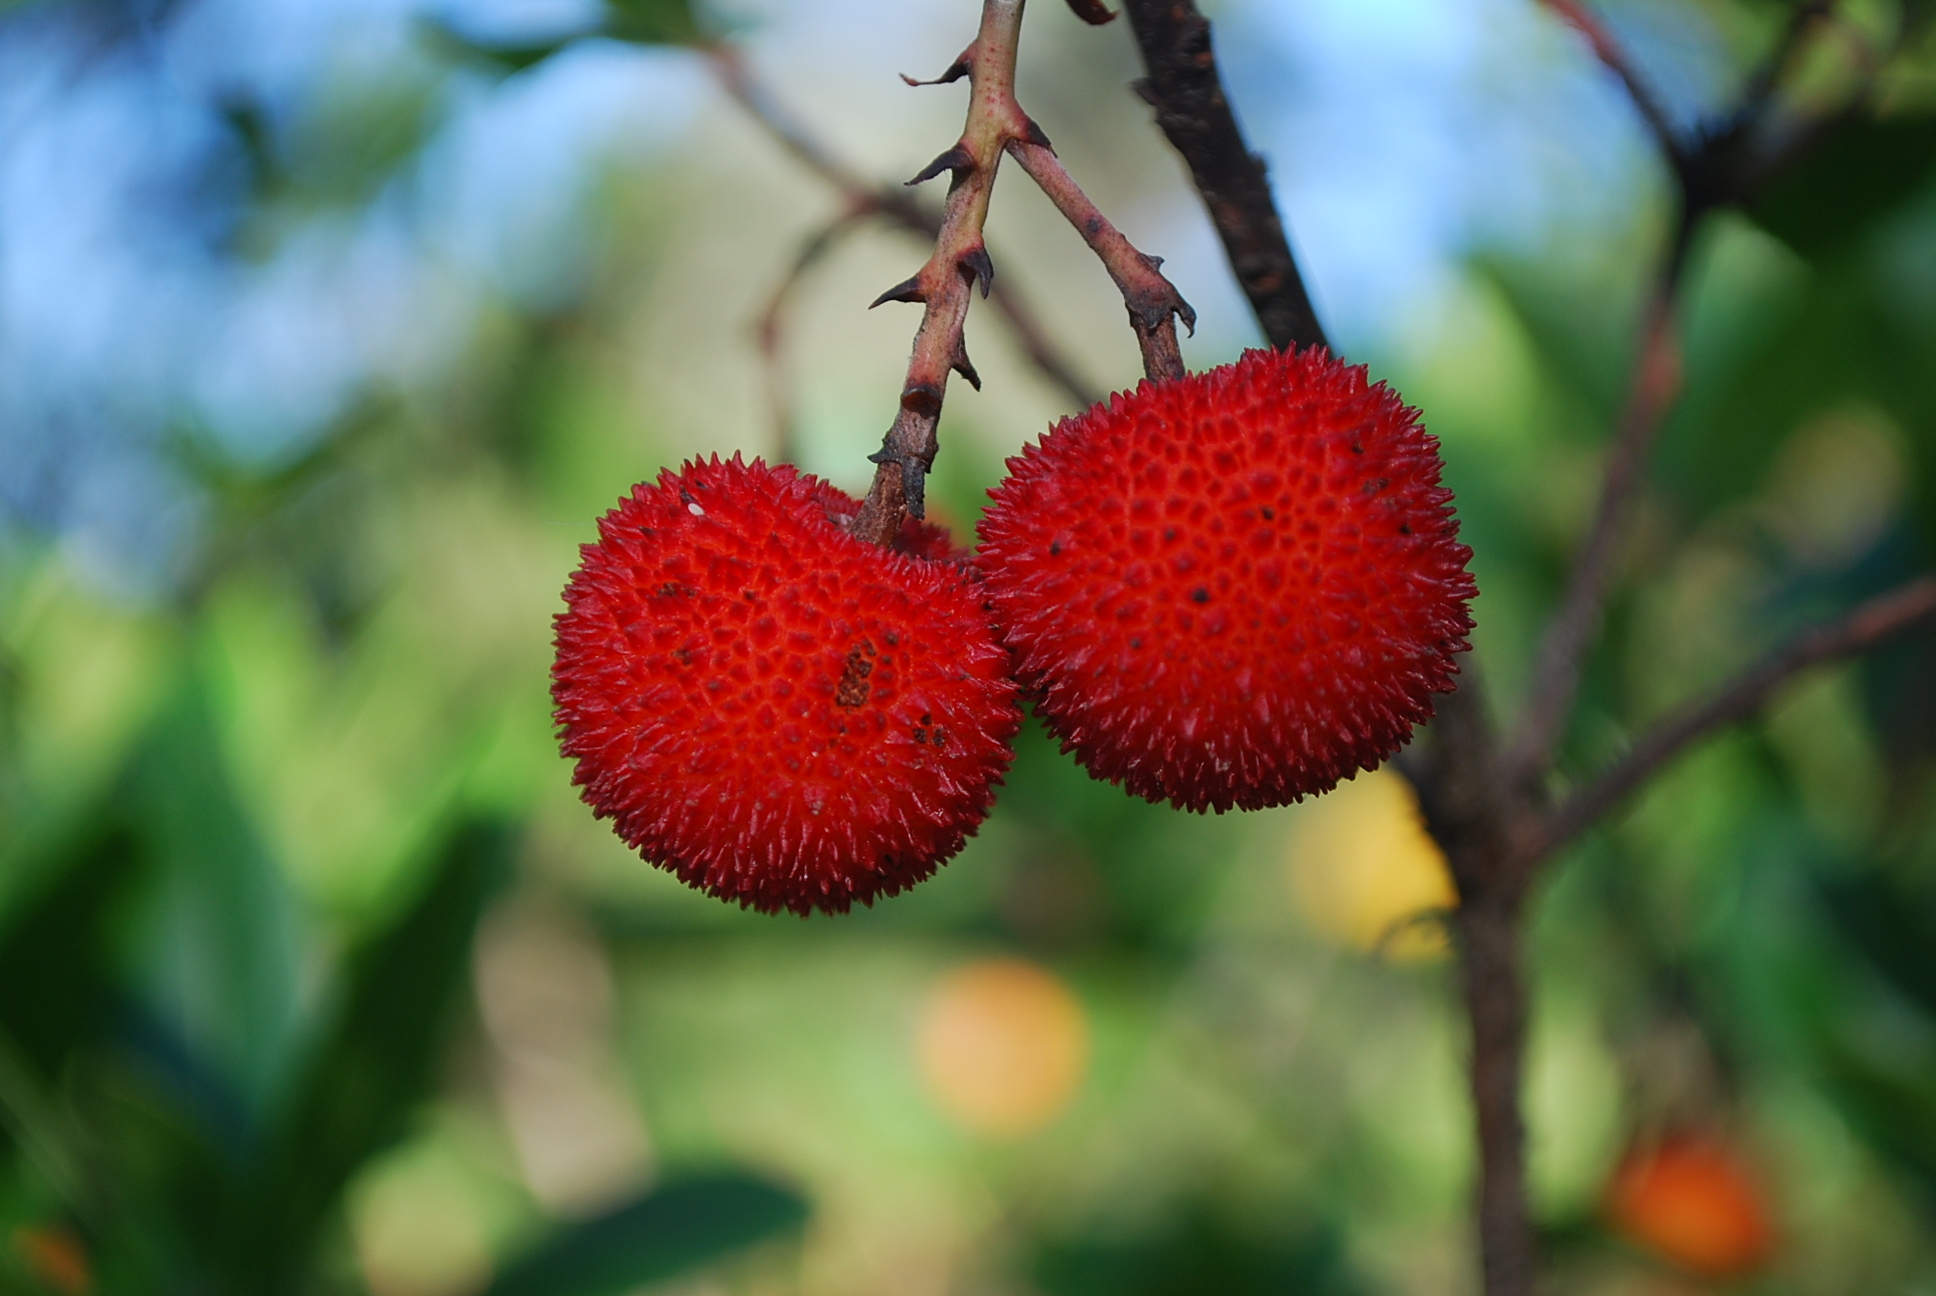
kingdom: Plantae
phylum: Tracheophyta
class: Magnoliopsida
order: Ericales
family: Ericaceae
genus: Arbutus
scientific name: Arbutus unedo
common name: Strawberry-tree
